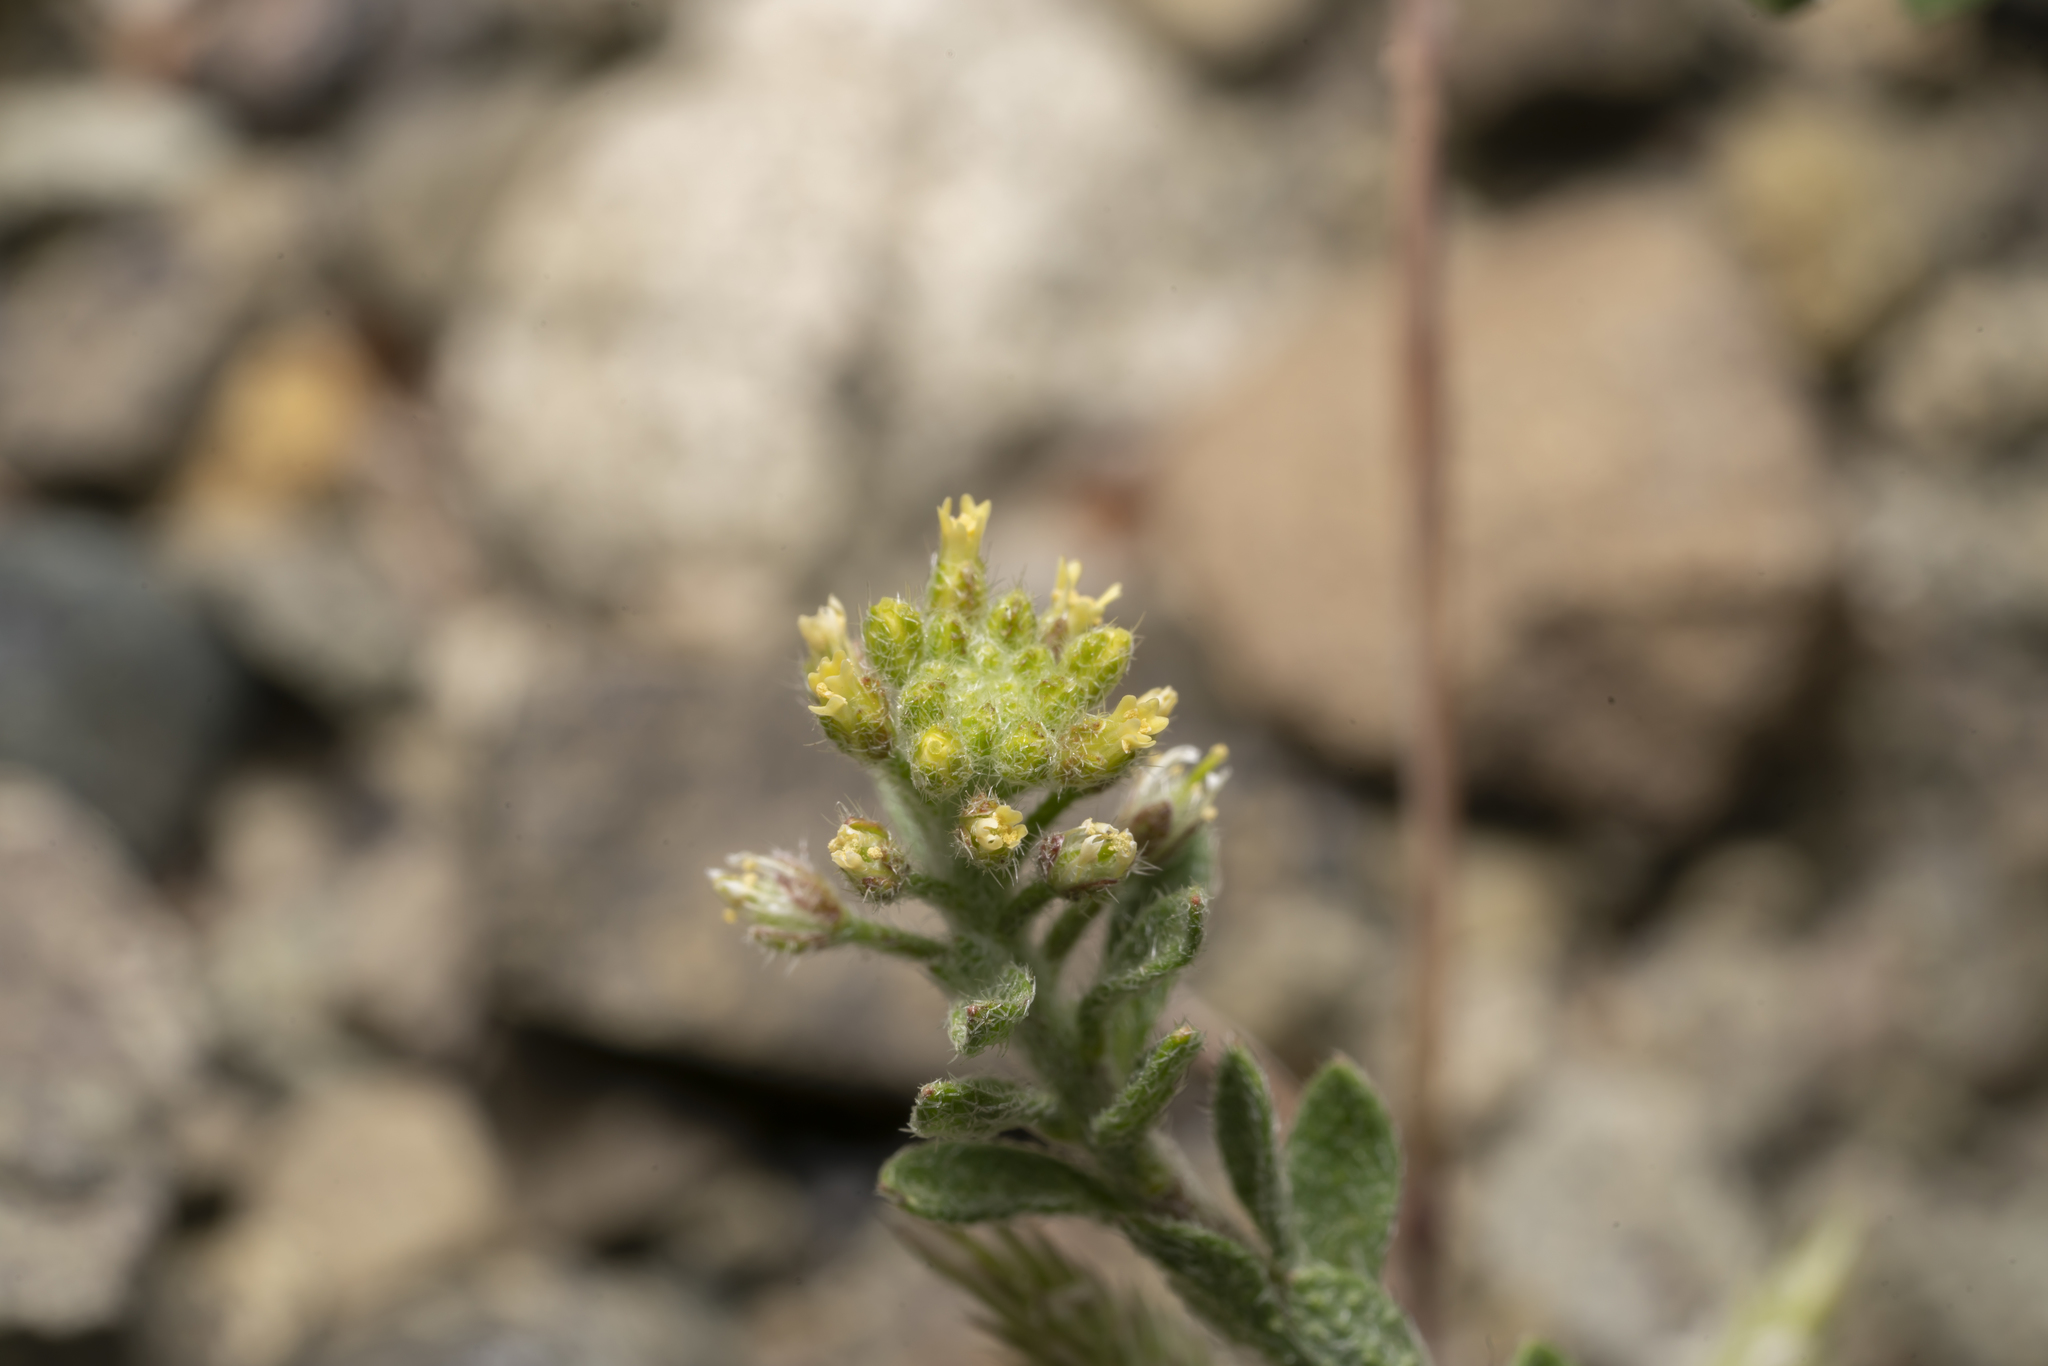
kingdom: Plantae
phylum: Tracheophyta
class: Magnoliopsida
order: Brassicales
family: Brassicaceae
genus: Alyssum
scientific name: Alyssum strigosum
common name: Alyssum
